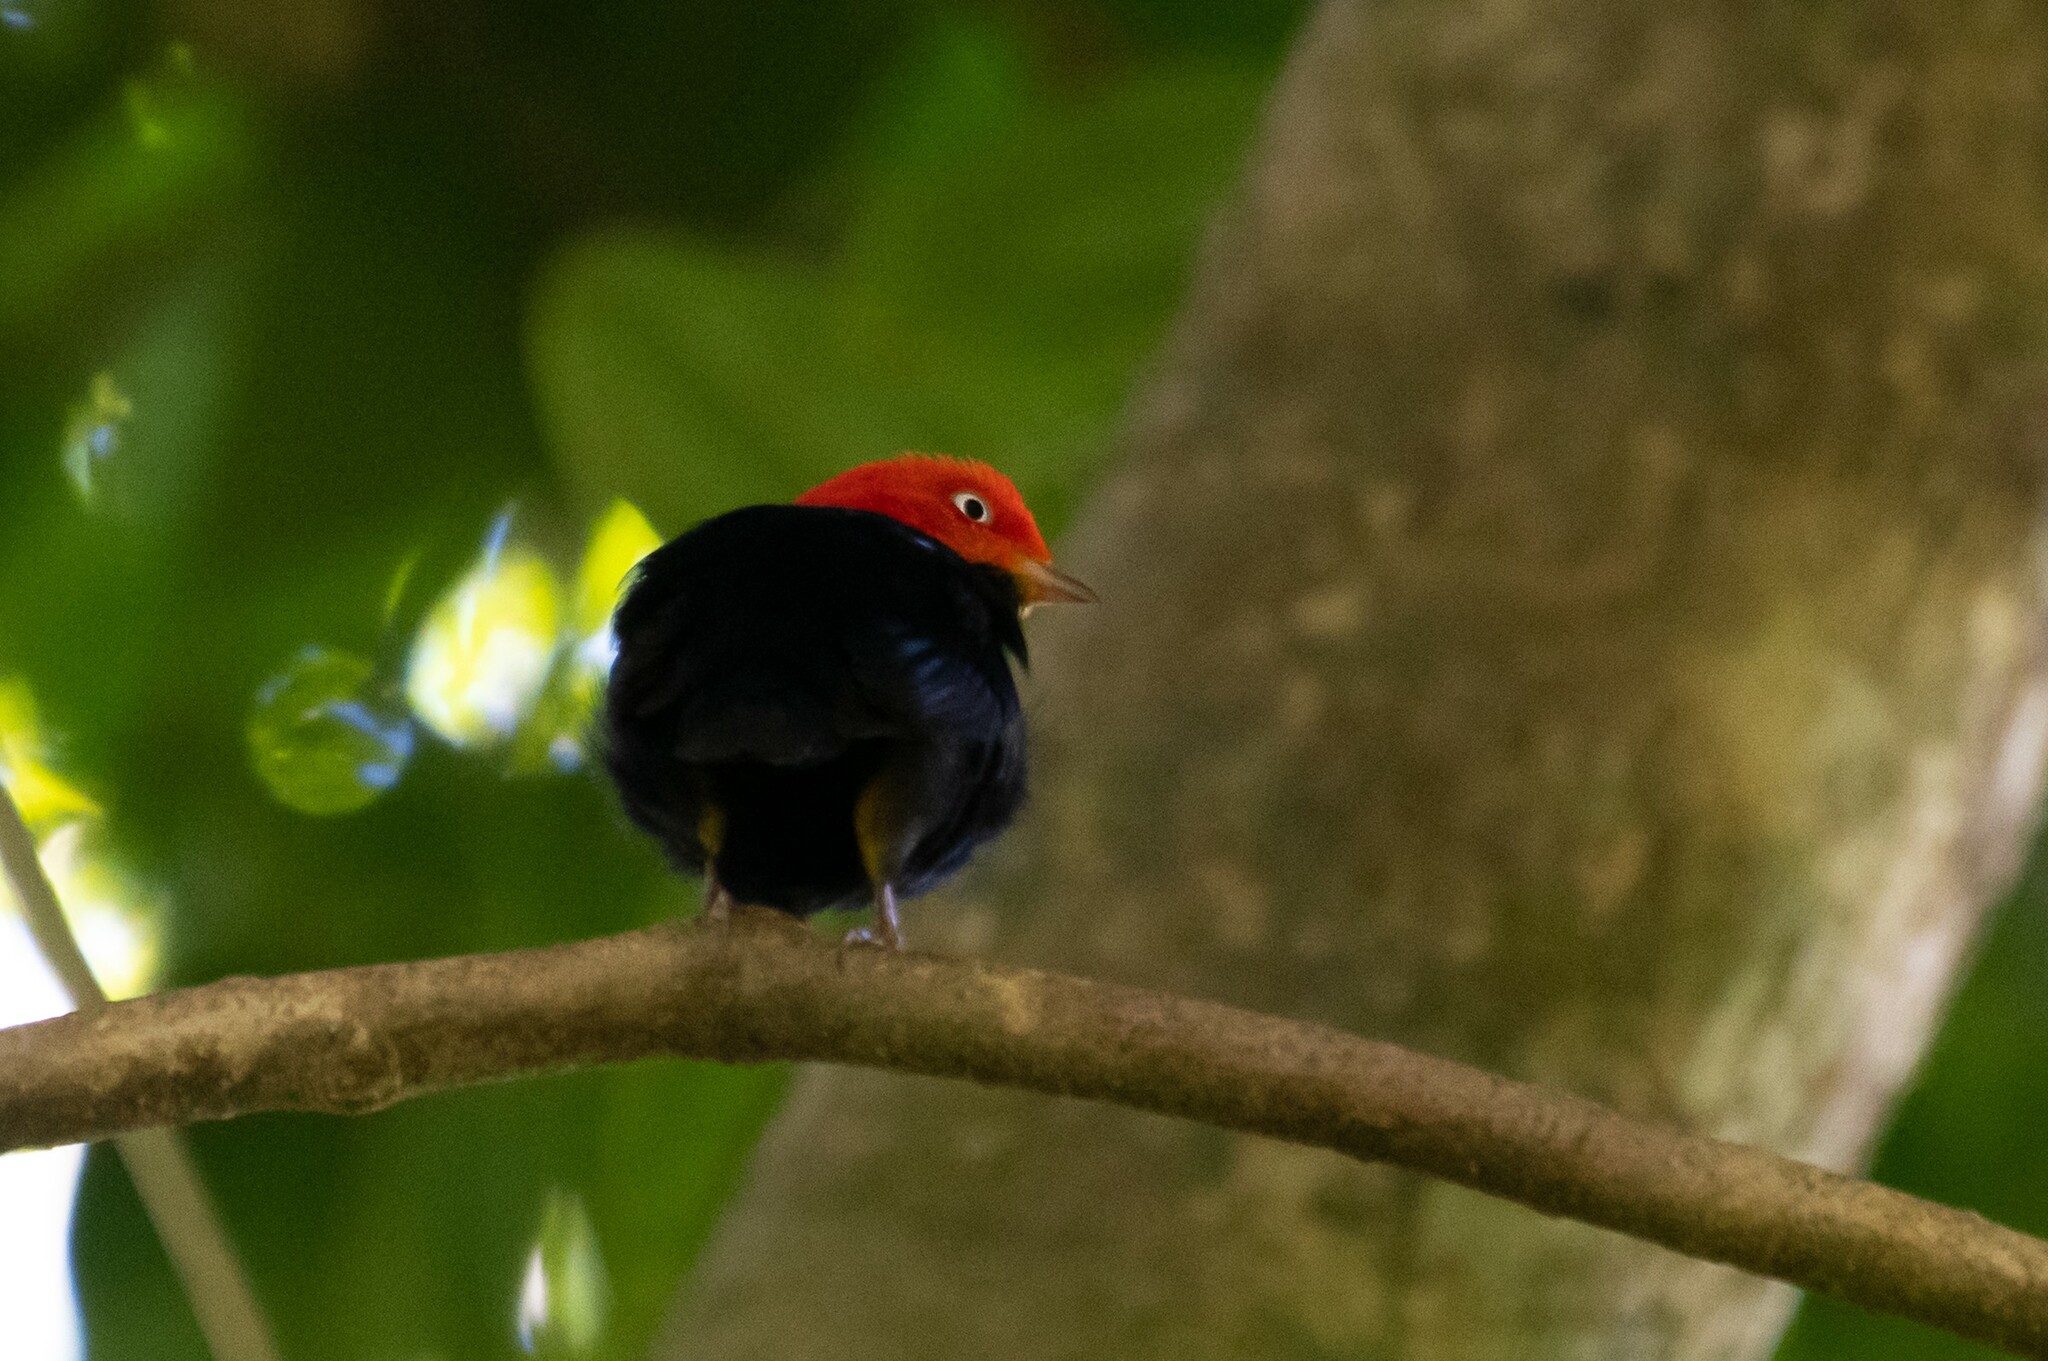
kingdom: Animalia
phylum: Chordata
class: Aves
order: Passeriformes
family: Pipridae
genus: Pipra
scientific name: Pipra mentalis
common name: Red-capped manakin
